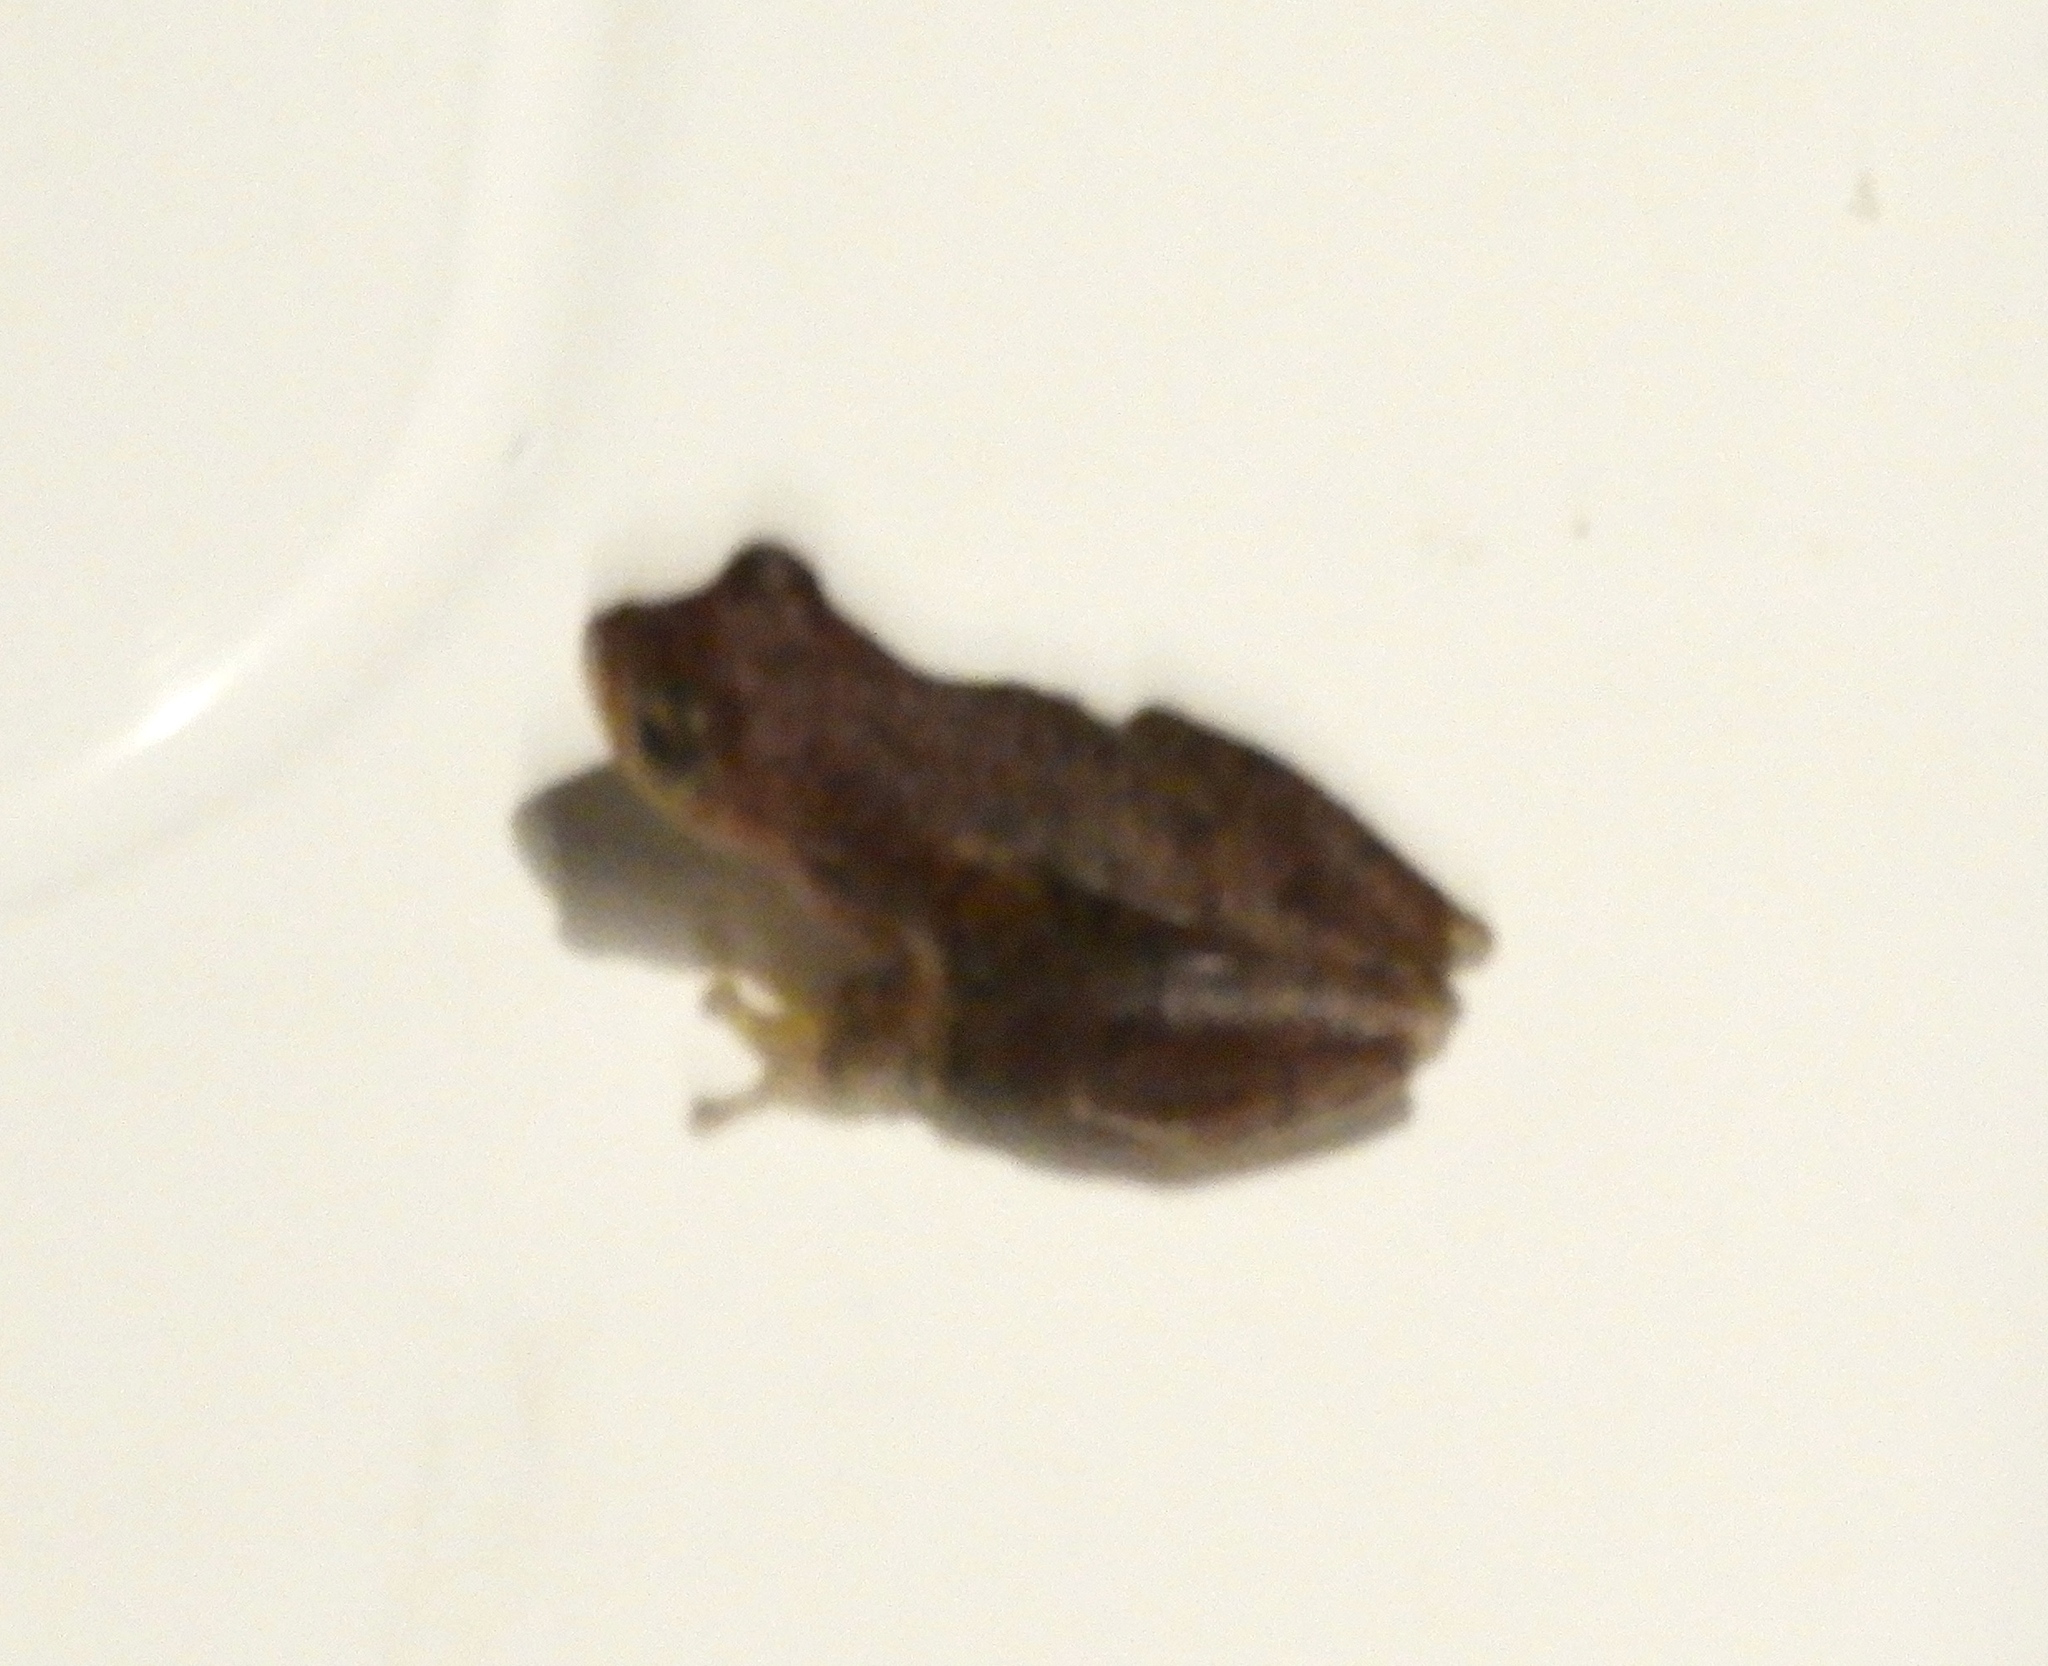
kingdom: Animalia
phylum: Chordata
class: Amphibia
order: Anura
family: Hylidae
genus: Tlalocohyla
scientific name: Tlalocohyla smithii
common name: Dwarf mexican treefrog
